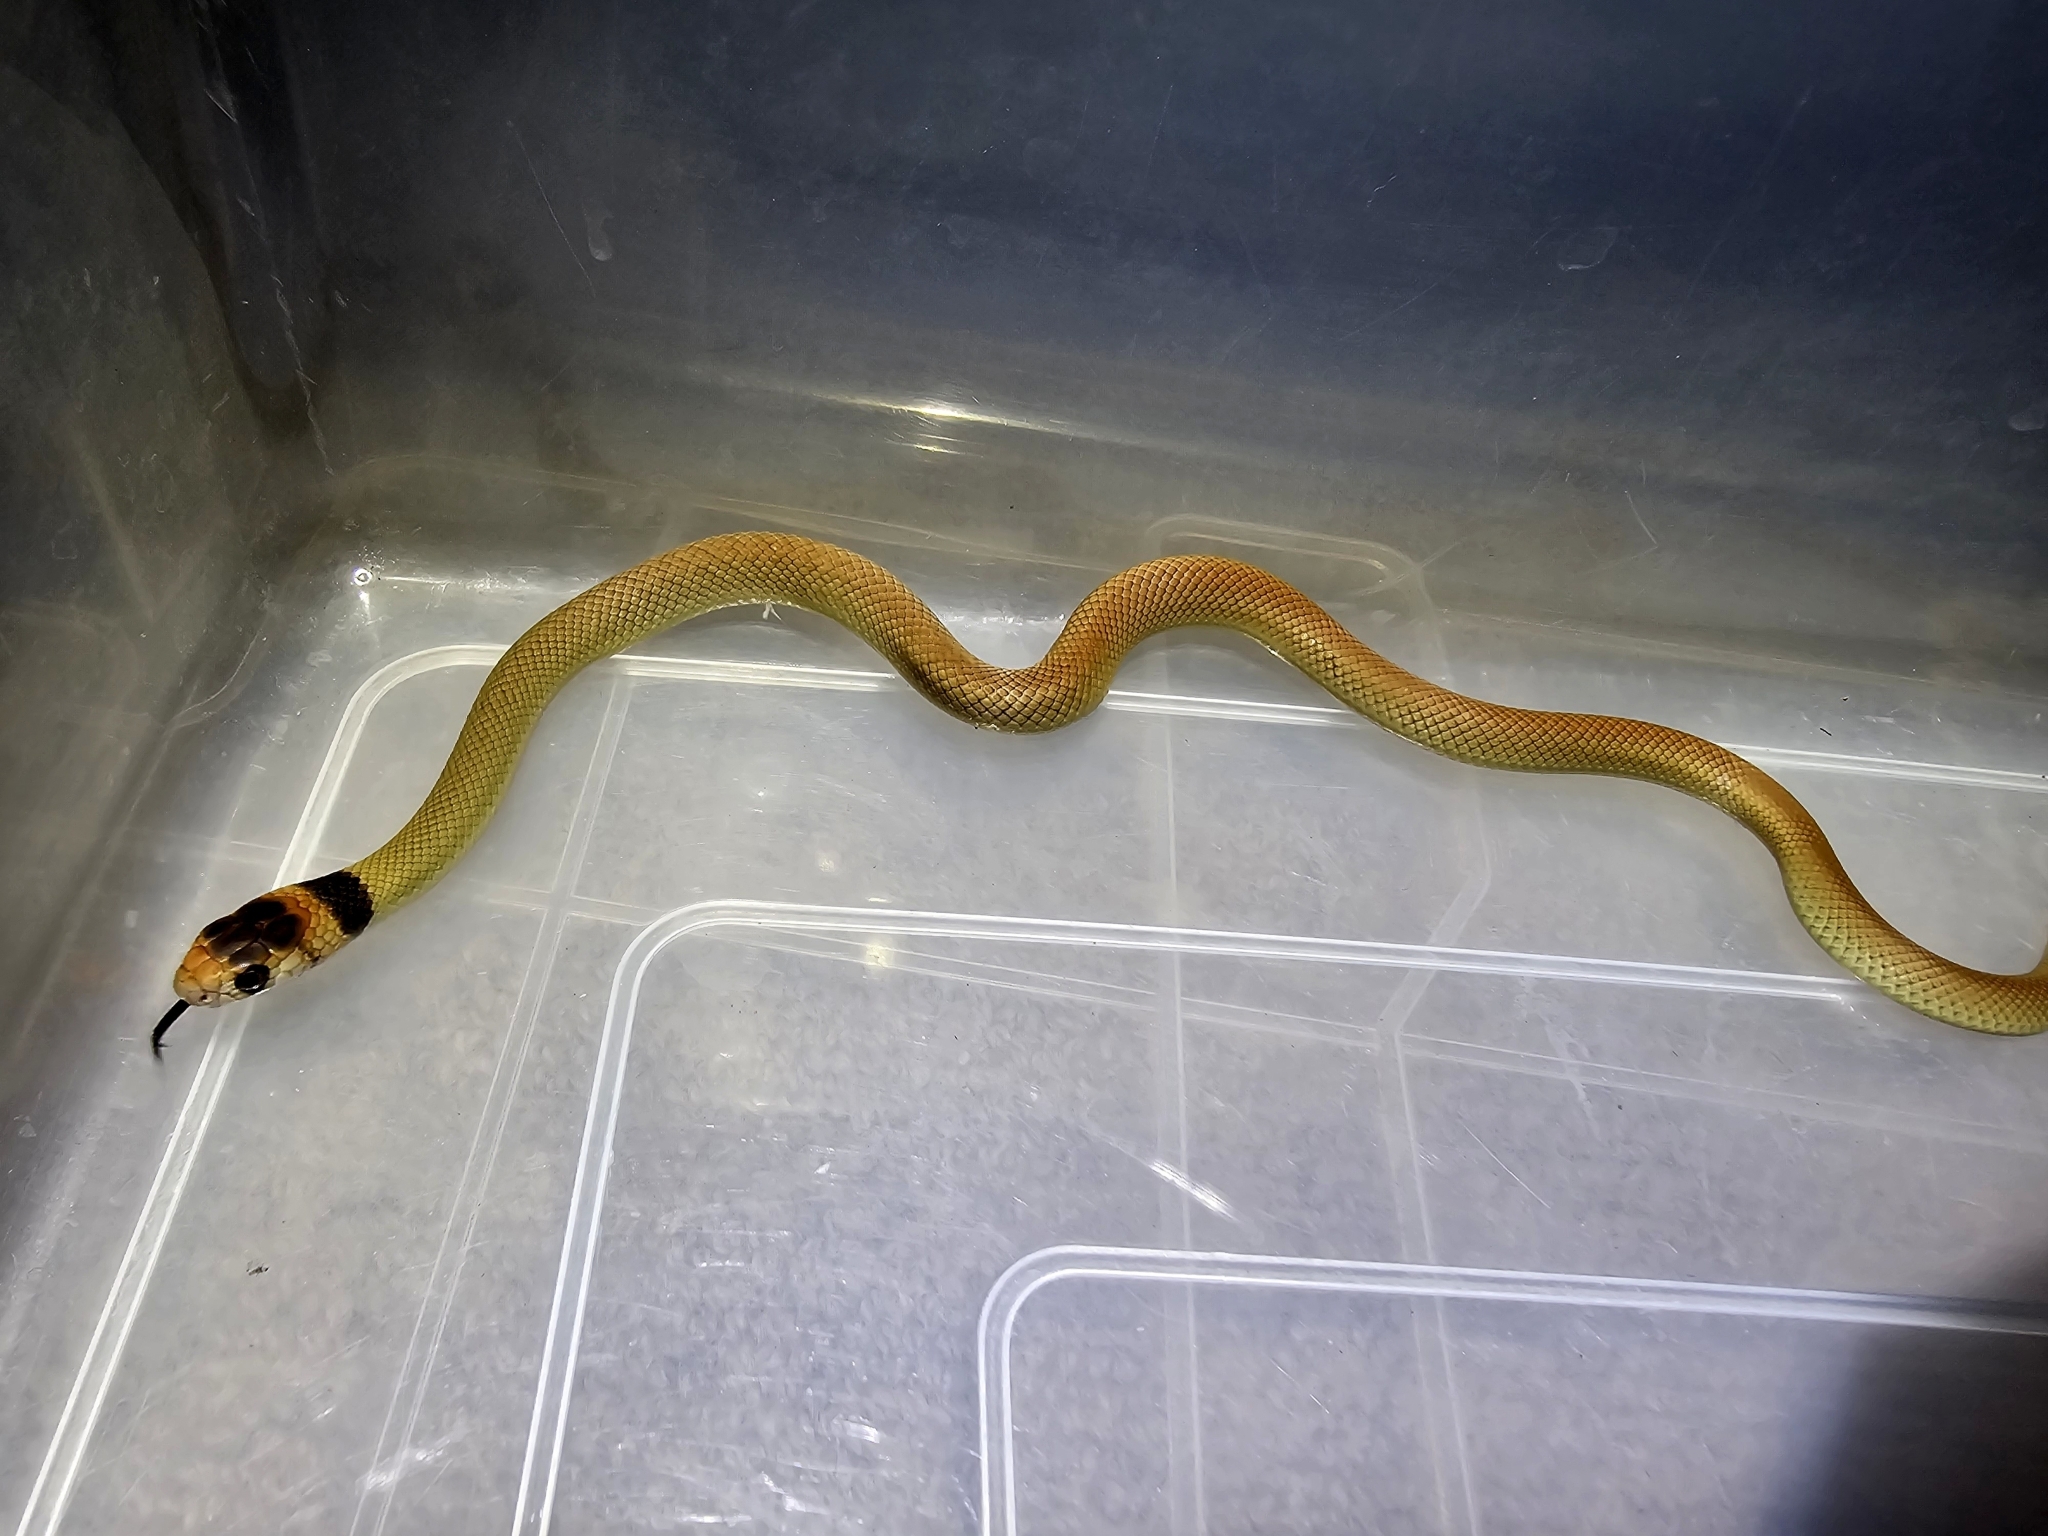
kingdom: Animalia
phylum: Chordata
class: Squamata
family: Elapidae
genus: Pseudonaja
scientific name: Pseudonaja textilis
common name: Eastern brown snake
